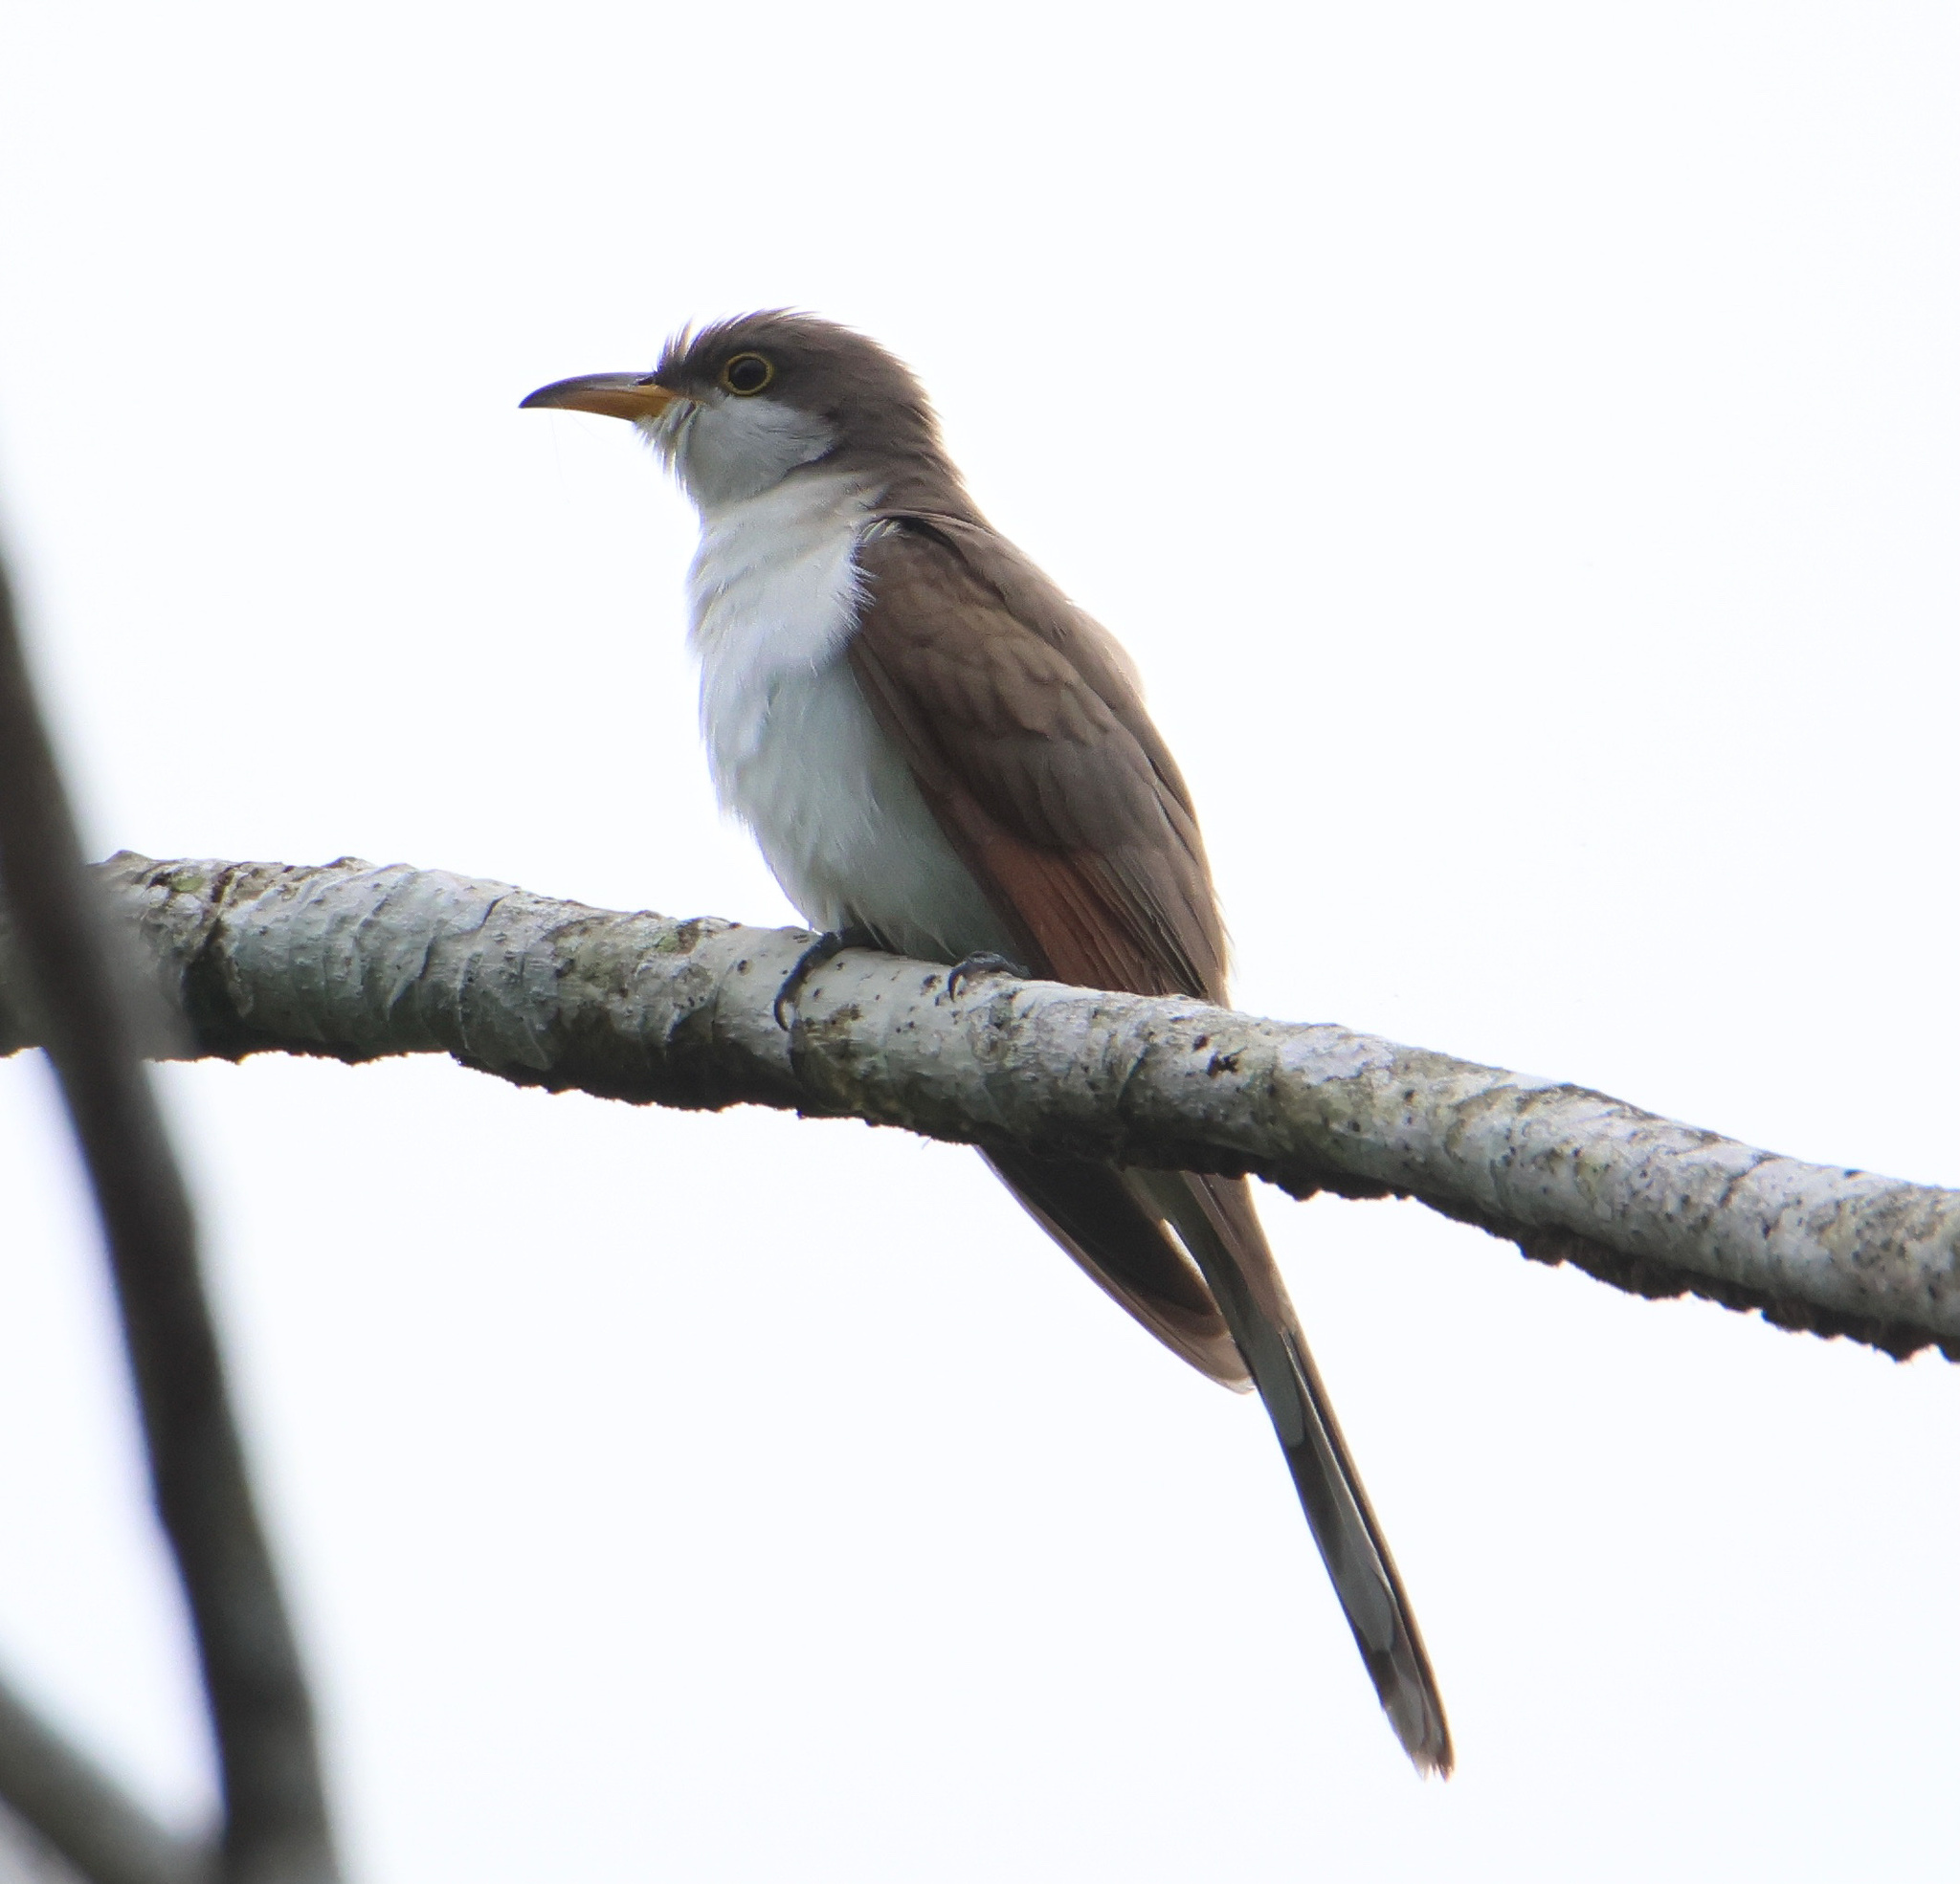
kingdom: Animalia
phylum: Chordata
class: Aves
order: Cuculiformes
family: Cuculidae
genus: Coccyzus
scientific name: Coccyzus americanus
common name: Yellow-billed cuckoo
